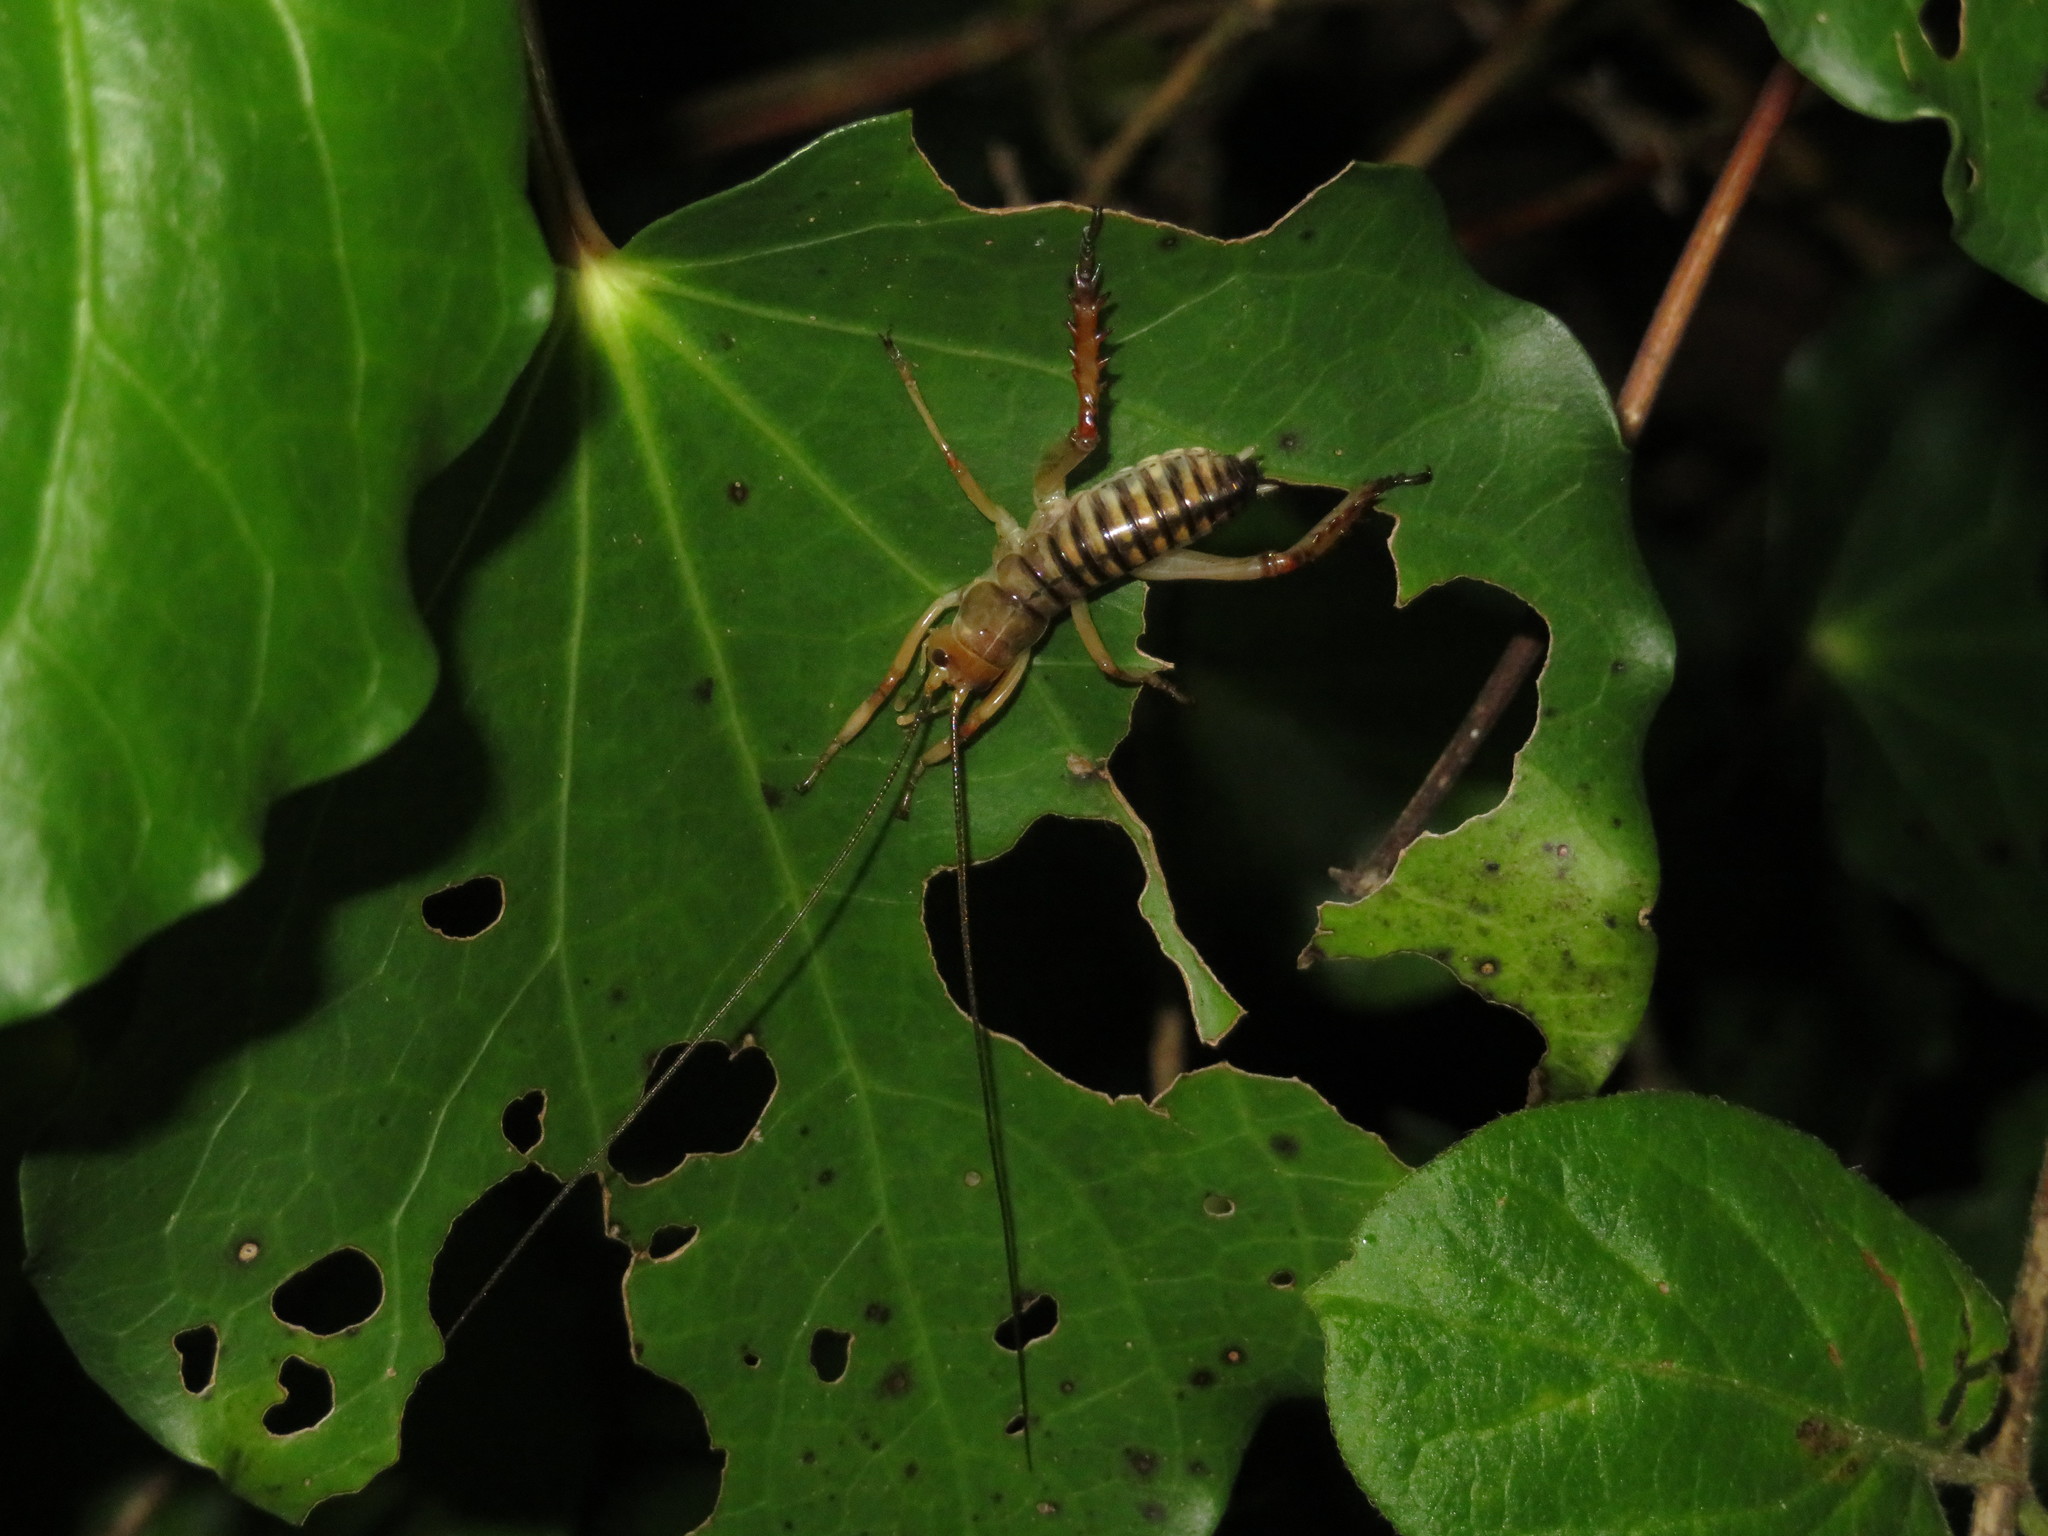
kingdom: Animalia
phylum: Arthropoda
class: Insecta
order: Orthoptera
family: Anostostomatidae
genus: Hemideina
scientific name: Hemideina crassidens
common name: Wellington tree weta
